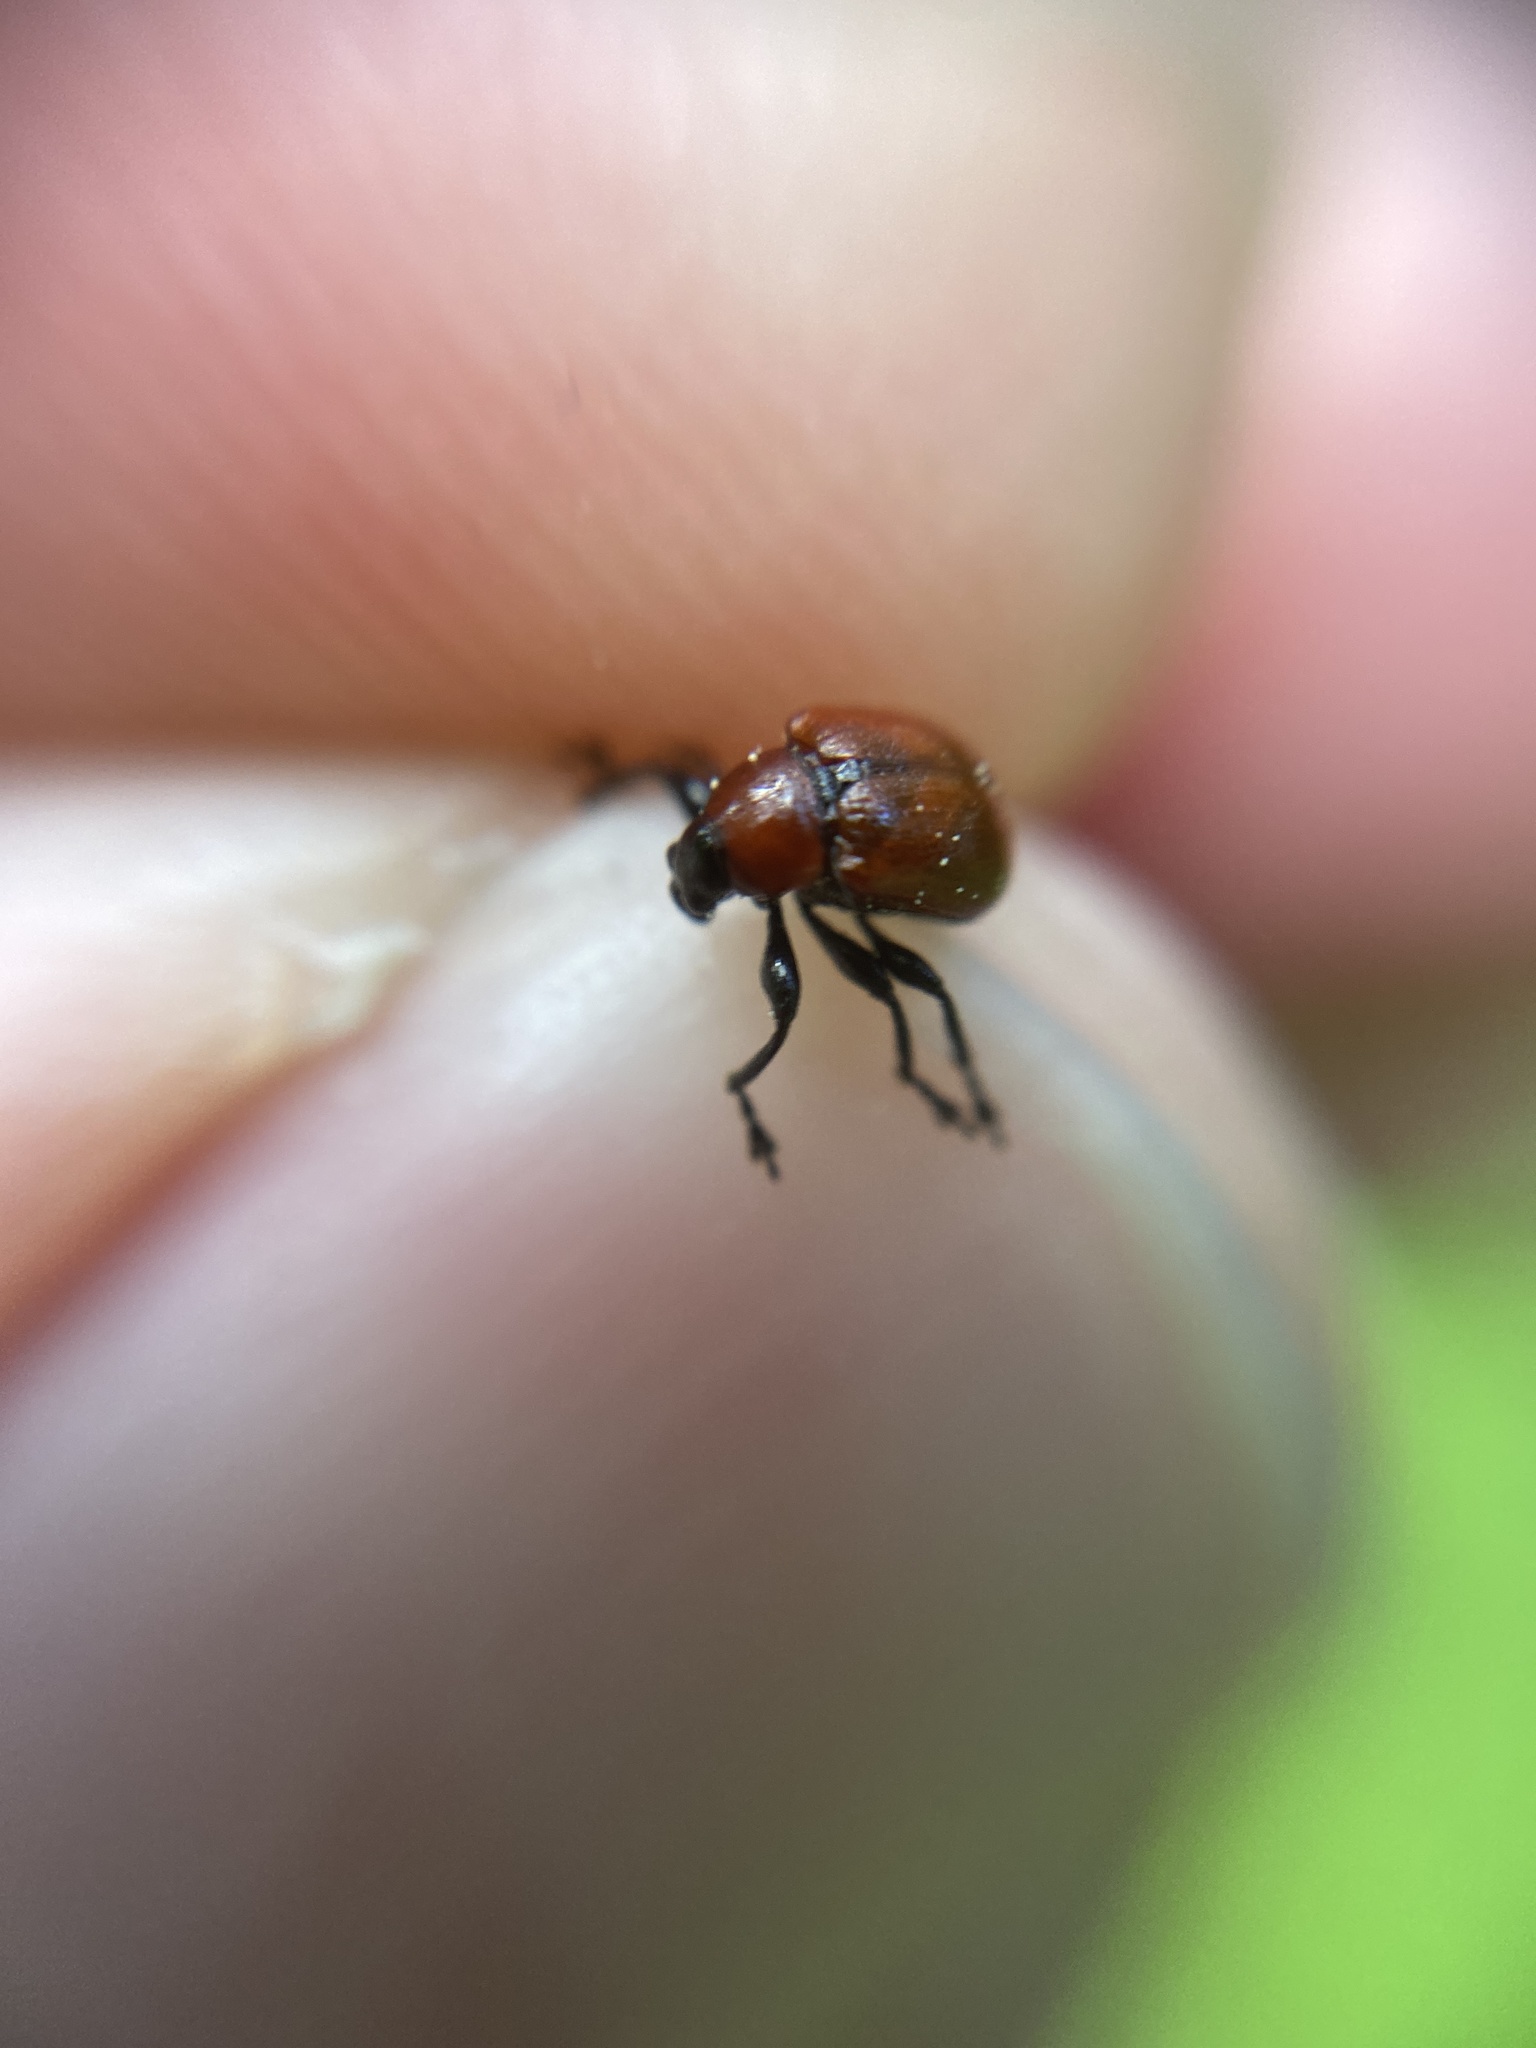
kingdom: Animalia
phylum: Arthropoda
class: Insecta
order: Coleoptera
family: Attelabidae
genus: Attelabus
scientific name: Attelabus nitens
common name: Oak leaf-roller
